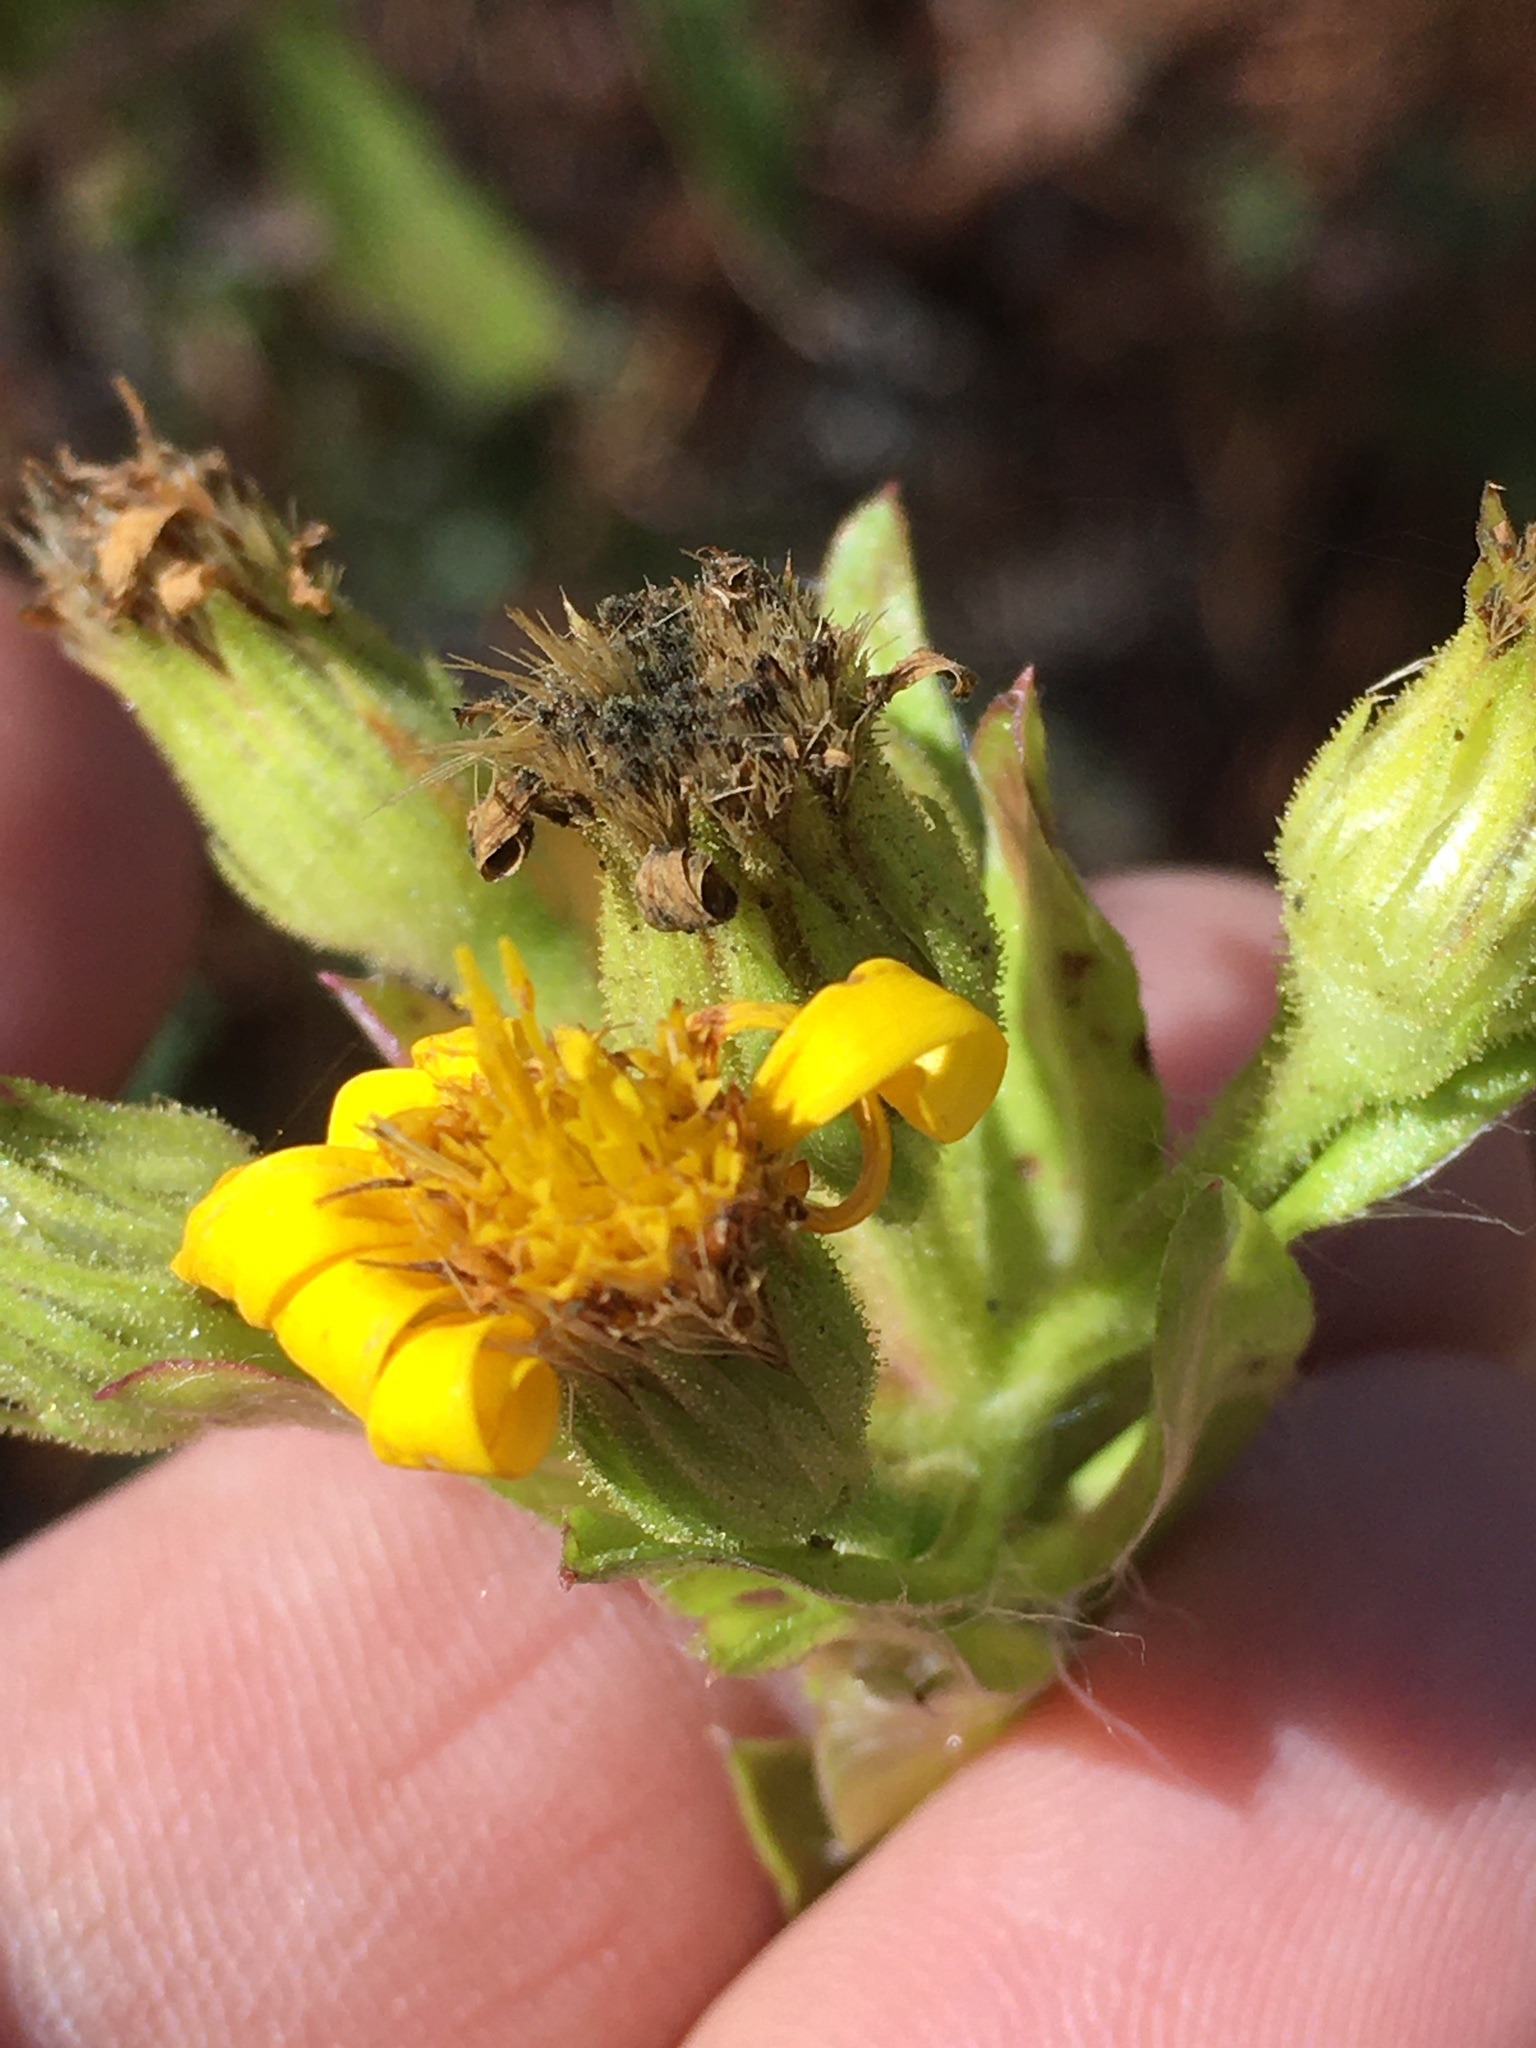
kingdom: Plantae
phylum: Tracheophyta
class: Magnoliopsida
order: Asterales
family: Asteraceae
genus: Chrysopsis
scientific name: Chrysopsis mariana
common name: Maryland golden-aster
